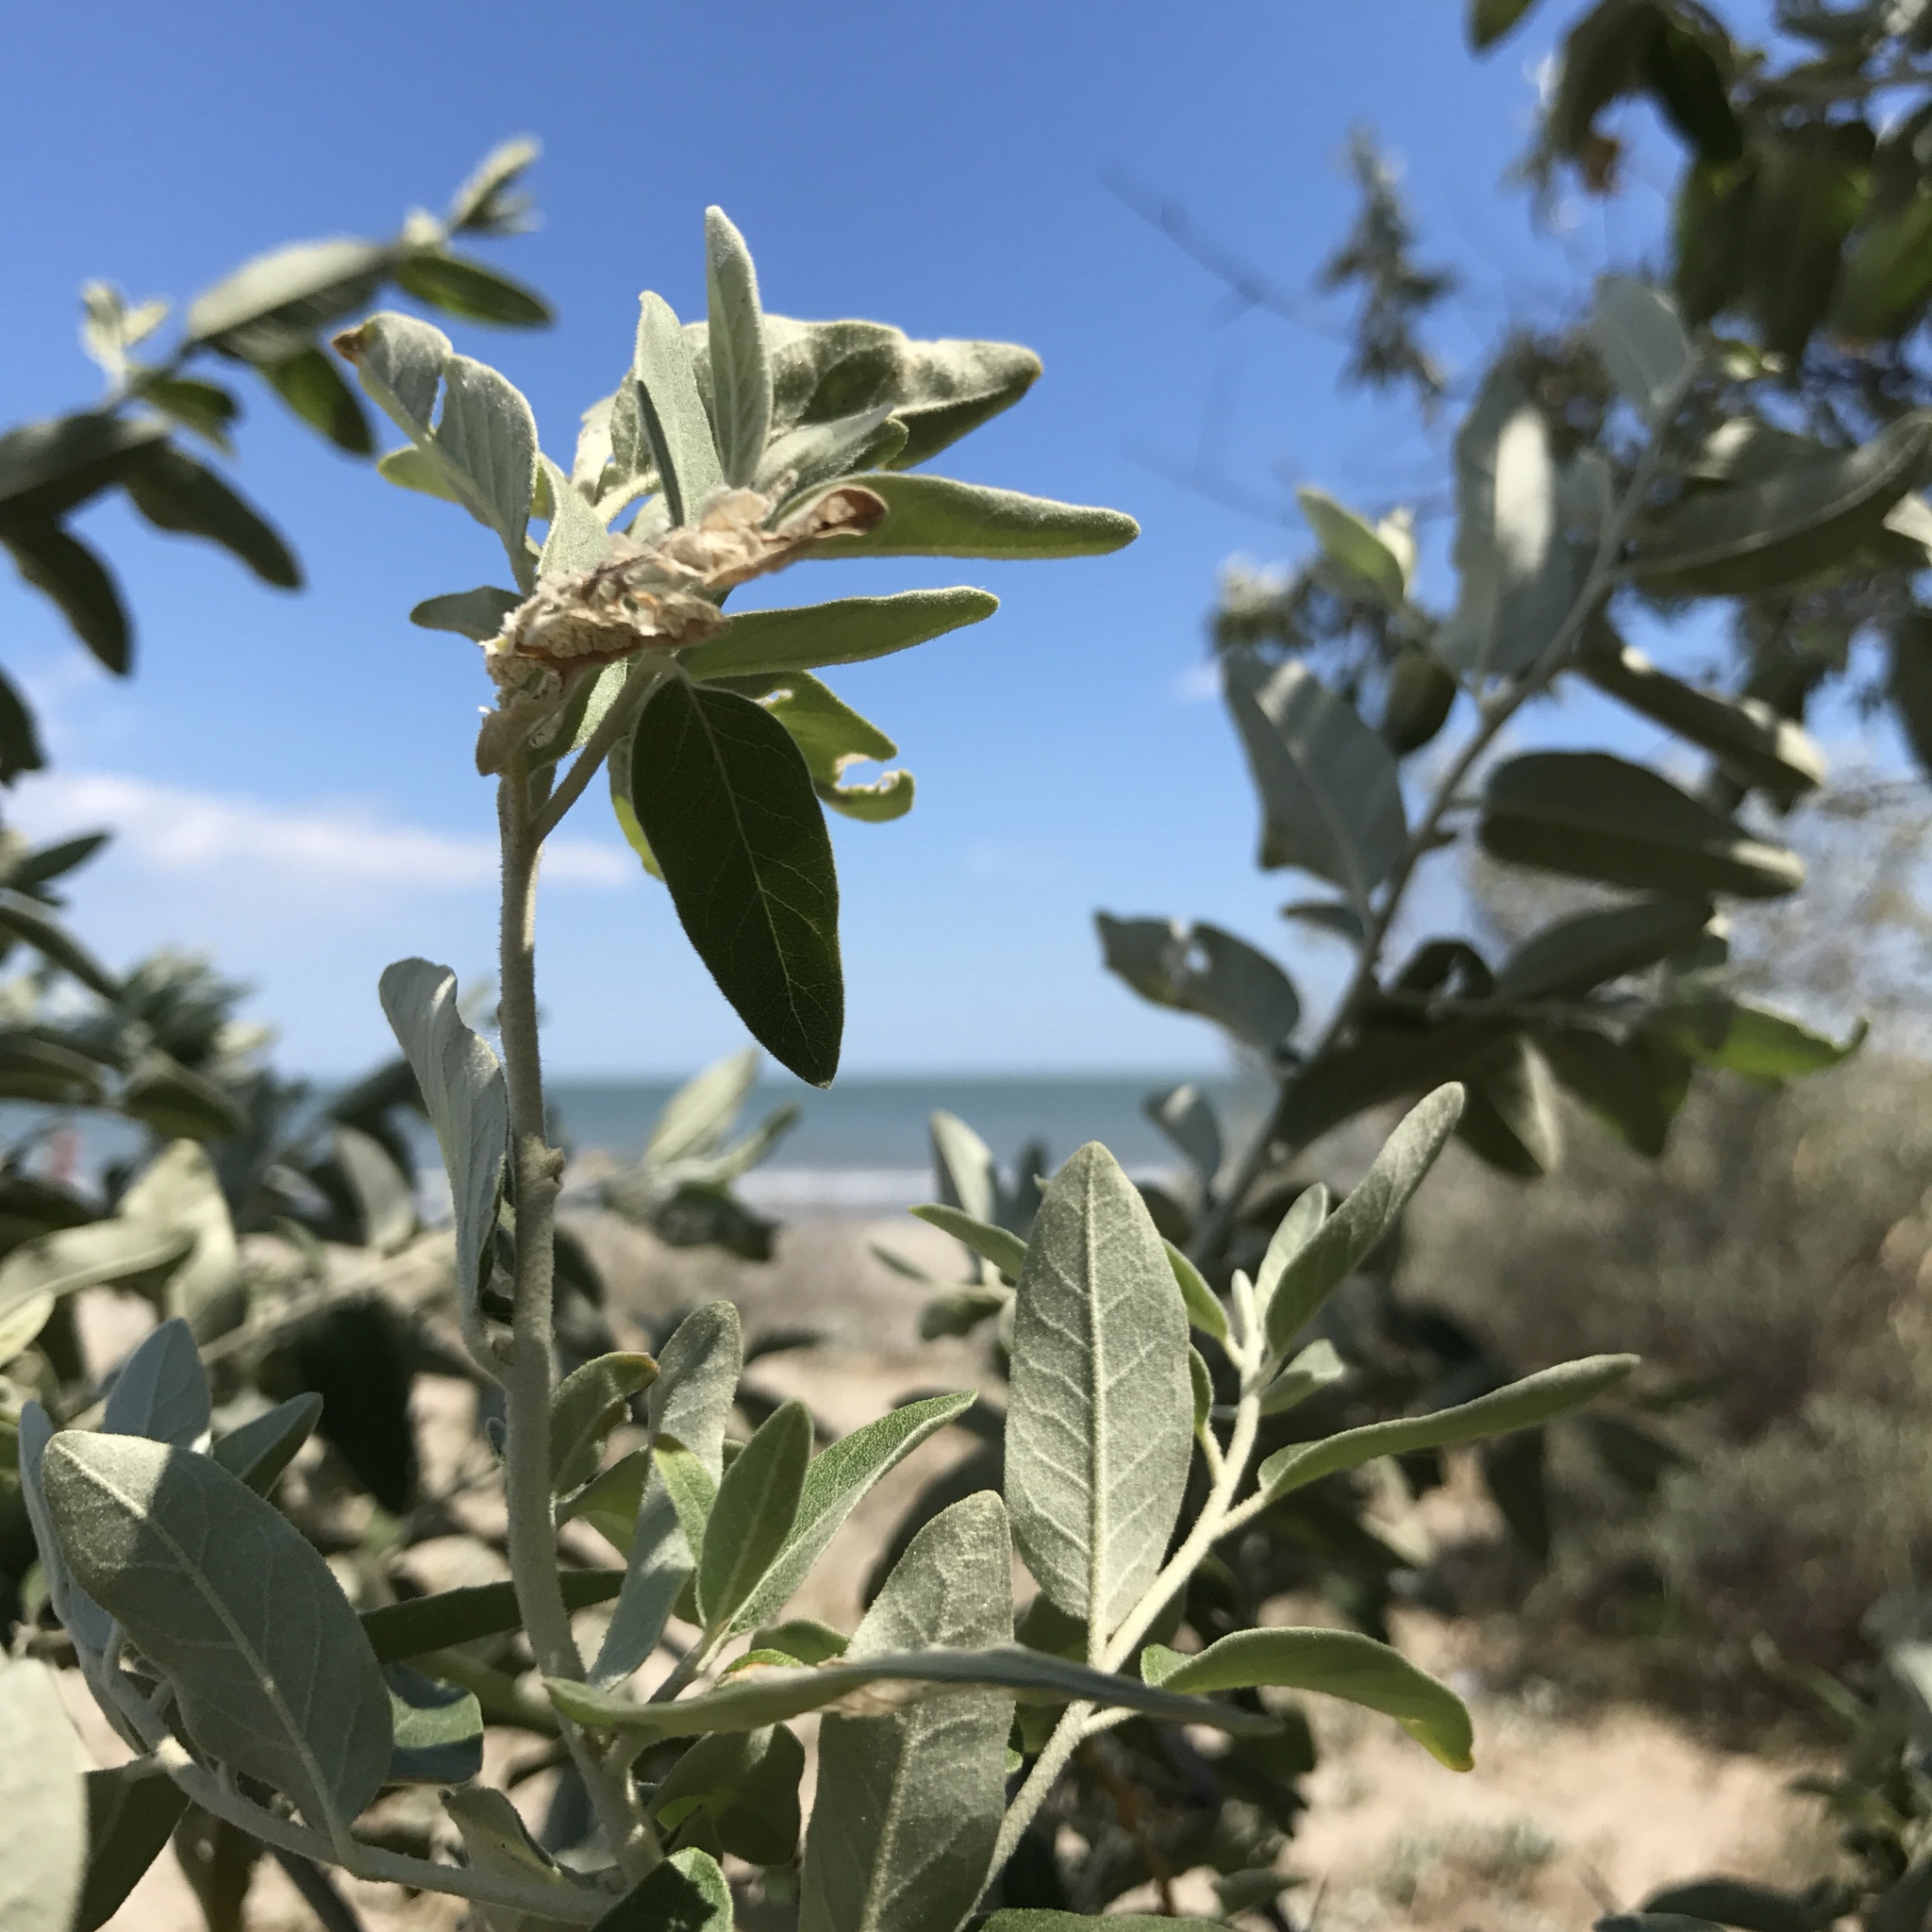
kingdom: Plantae
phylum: Tracheophyta
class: Magnoliopsida
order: Rosales
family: Elaeagnaceae
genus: Elaeagnus
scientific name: Elaeagnus angustifolia
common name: Russian olive
